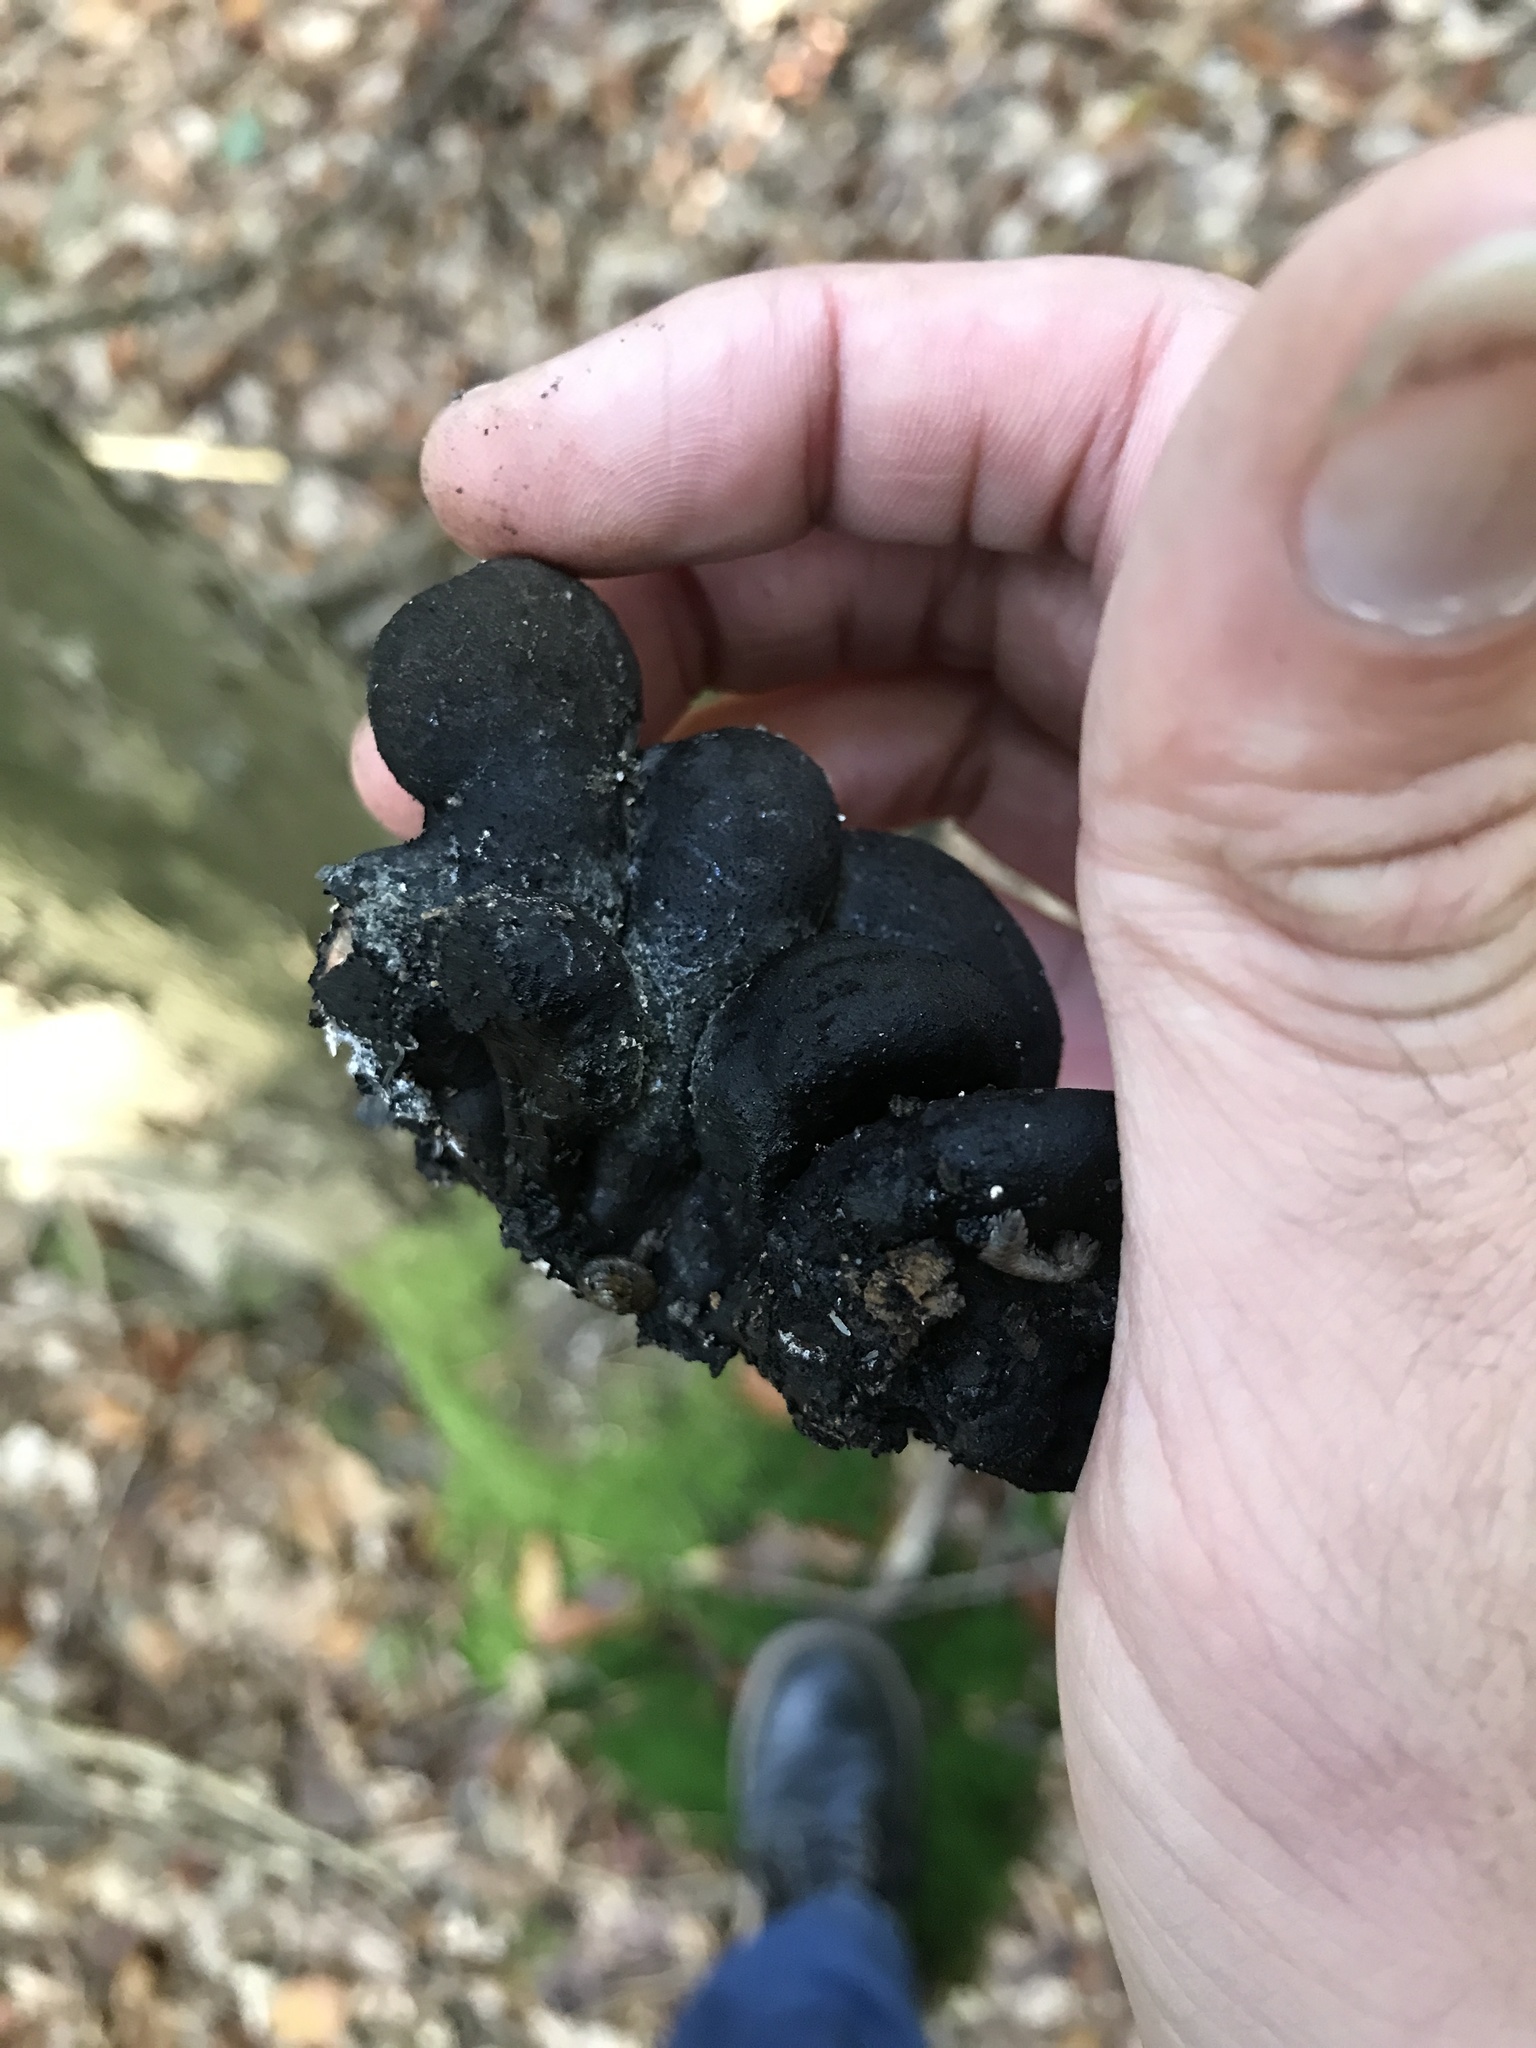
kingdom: Fungi
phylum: Ascomycota
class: Sordariomycetes
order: Xylariales
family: Xylariaceae
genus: Xylaria
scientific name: Xylaria polymorpha
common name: Dead man's fingers
